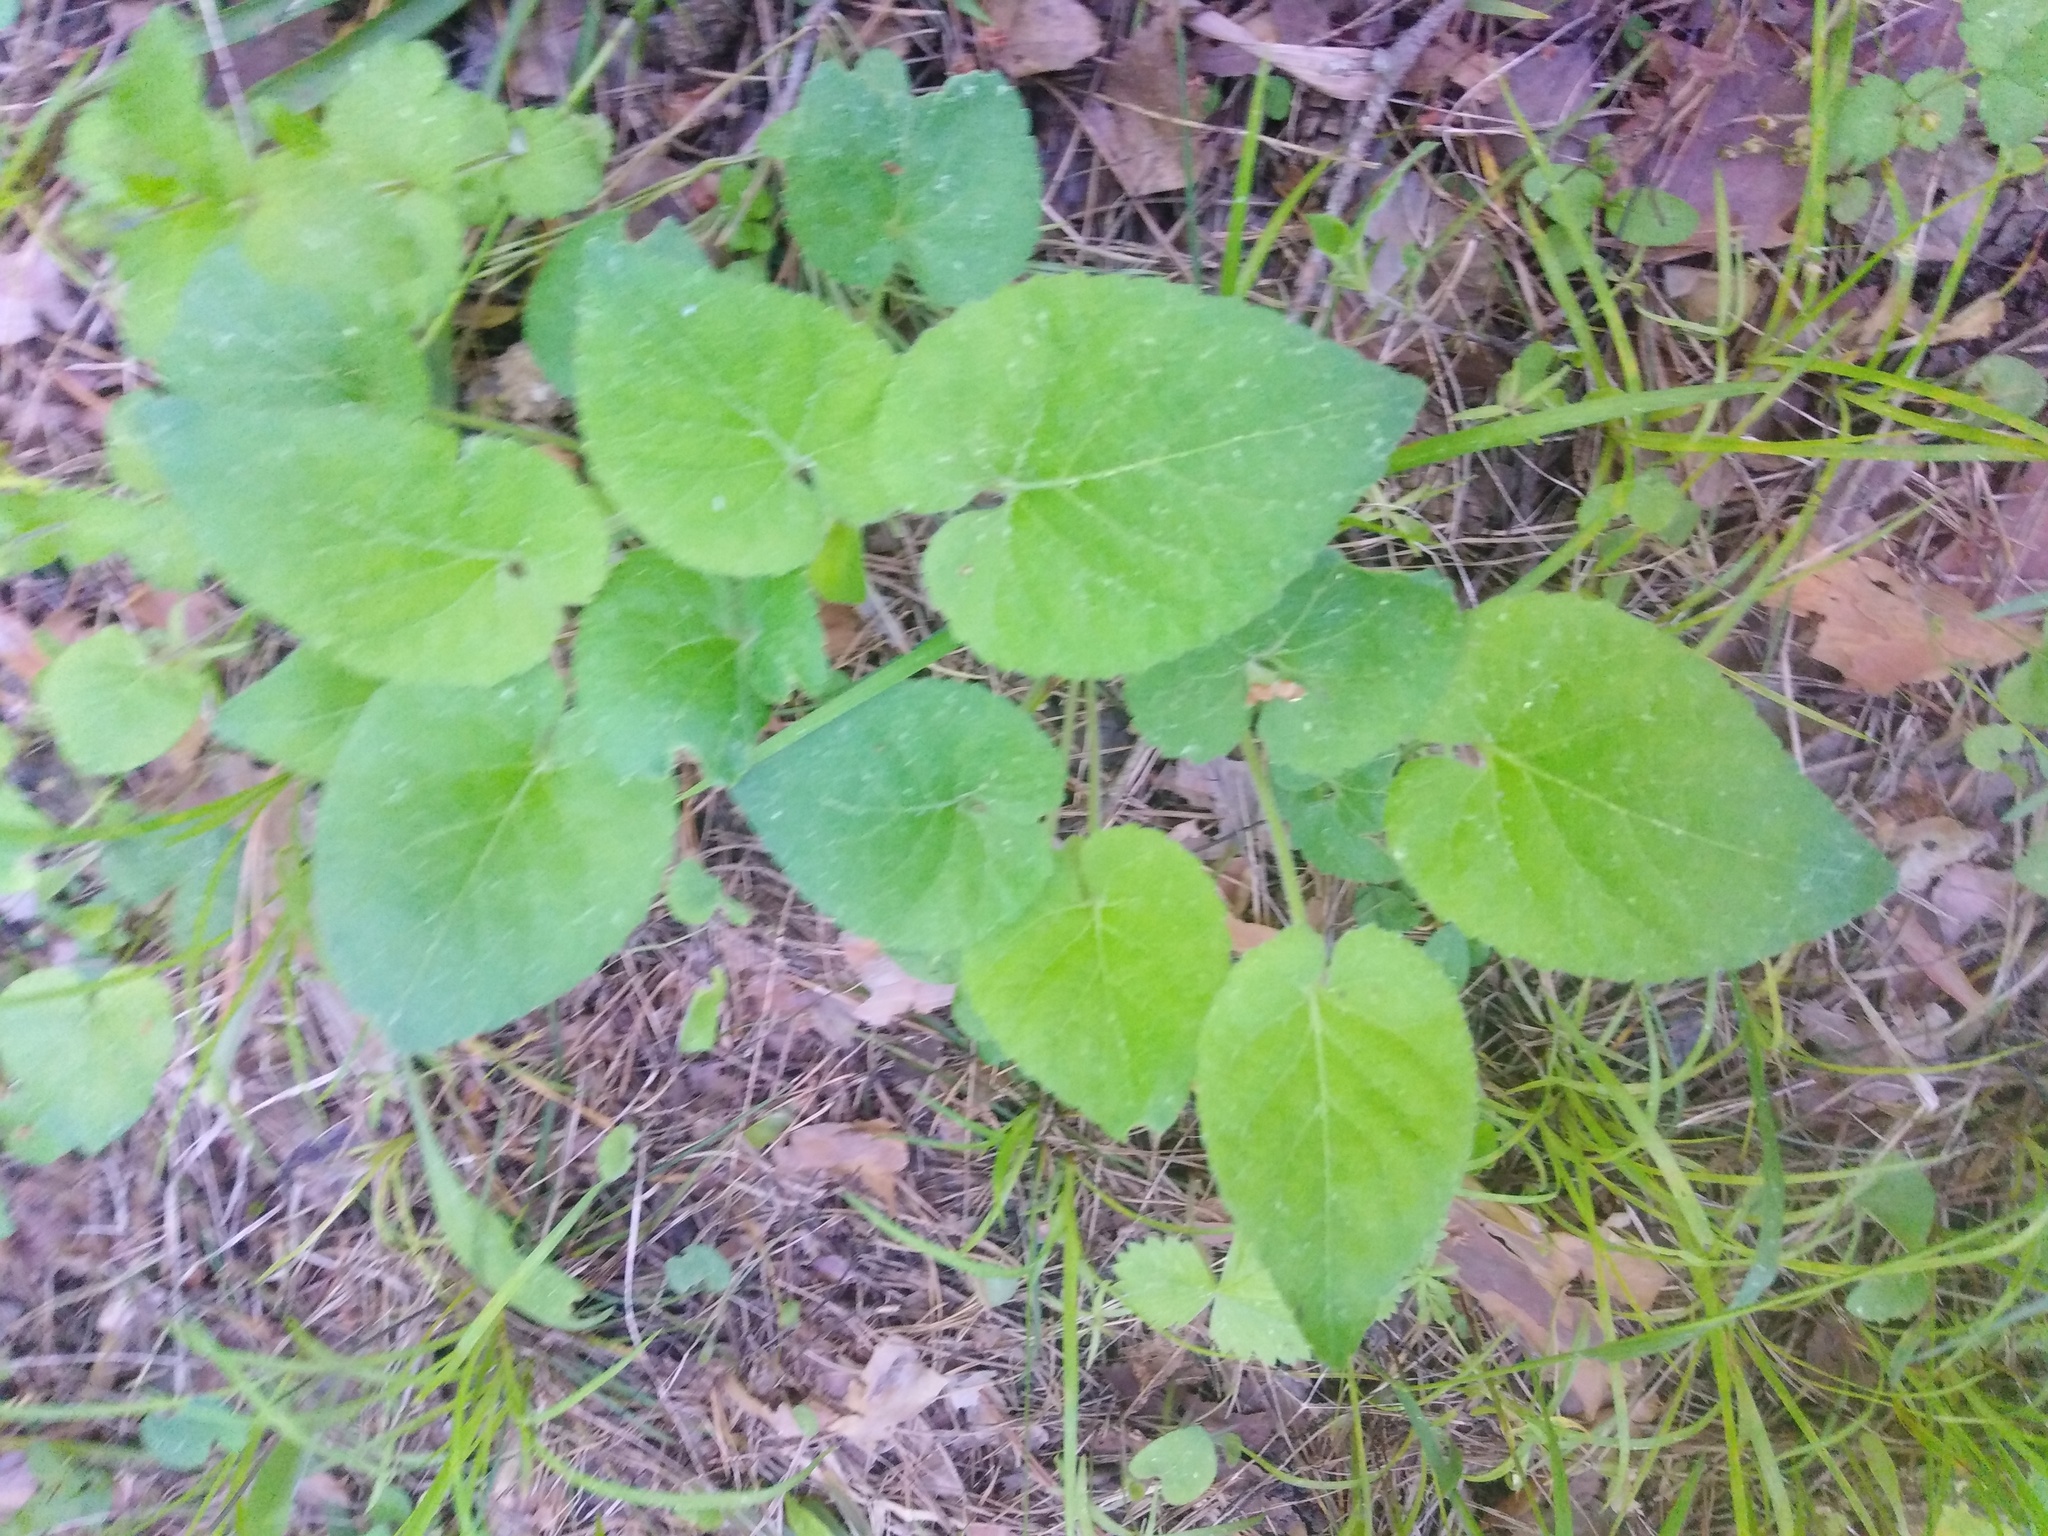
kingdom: Plantae
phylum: Tracheophyta
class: Magnoliopsida
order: Malpighiales
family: Violaceae
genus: Viola
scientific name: Viola collina
